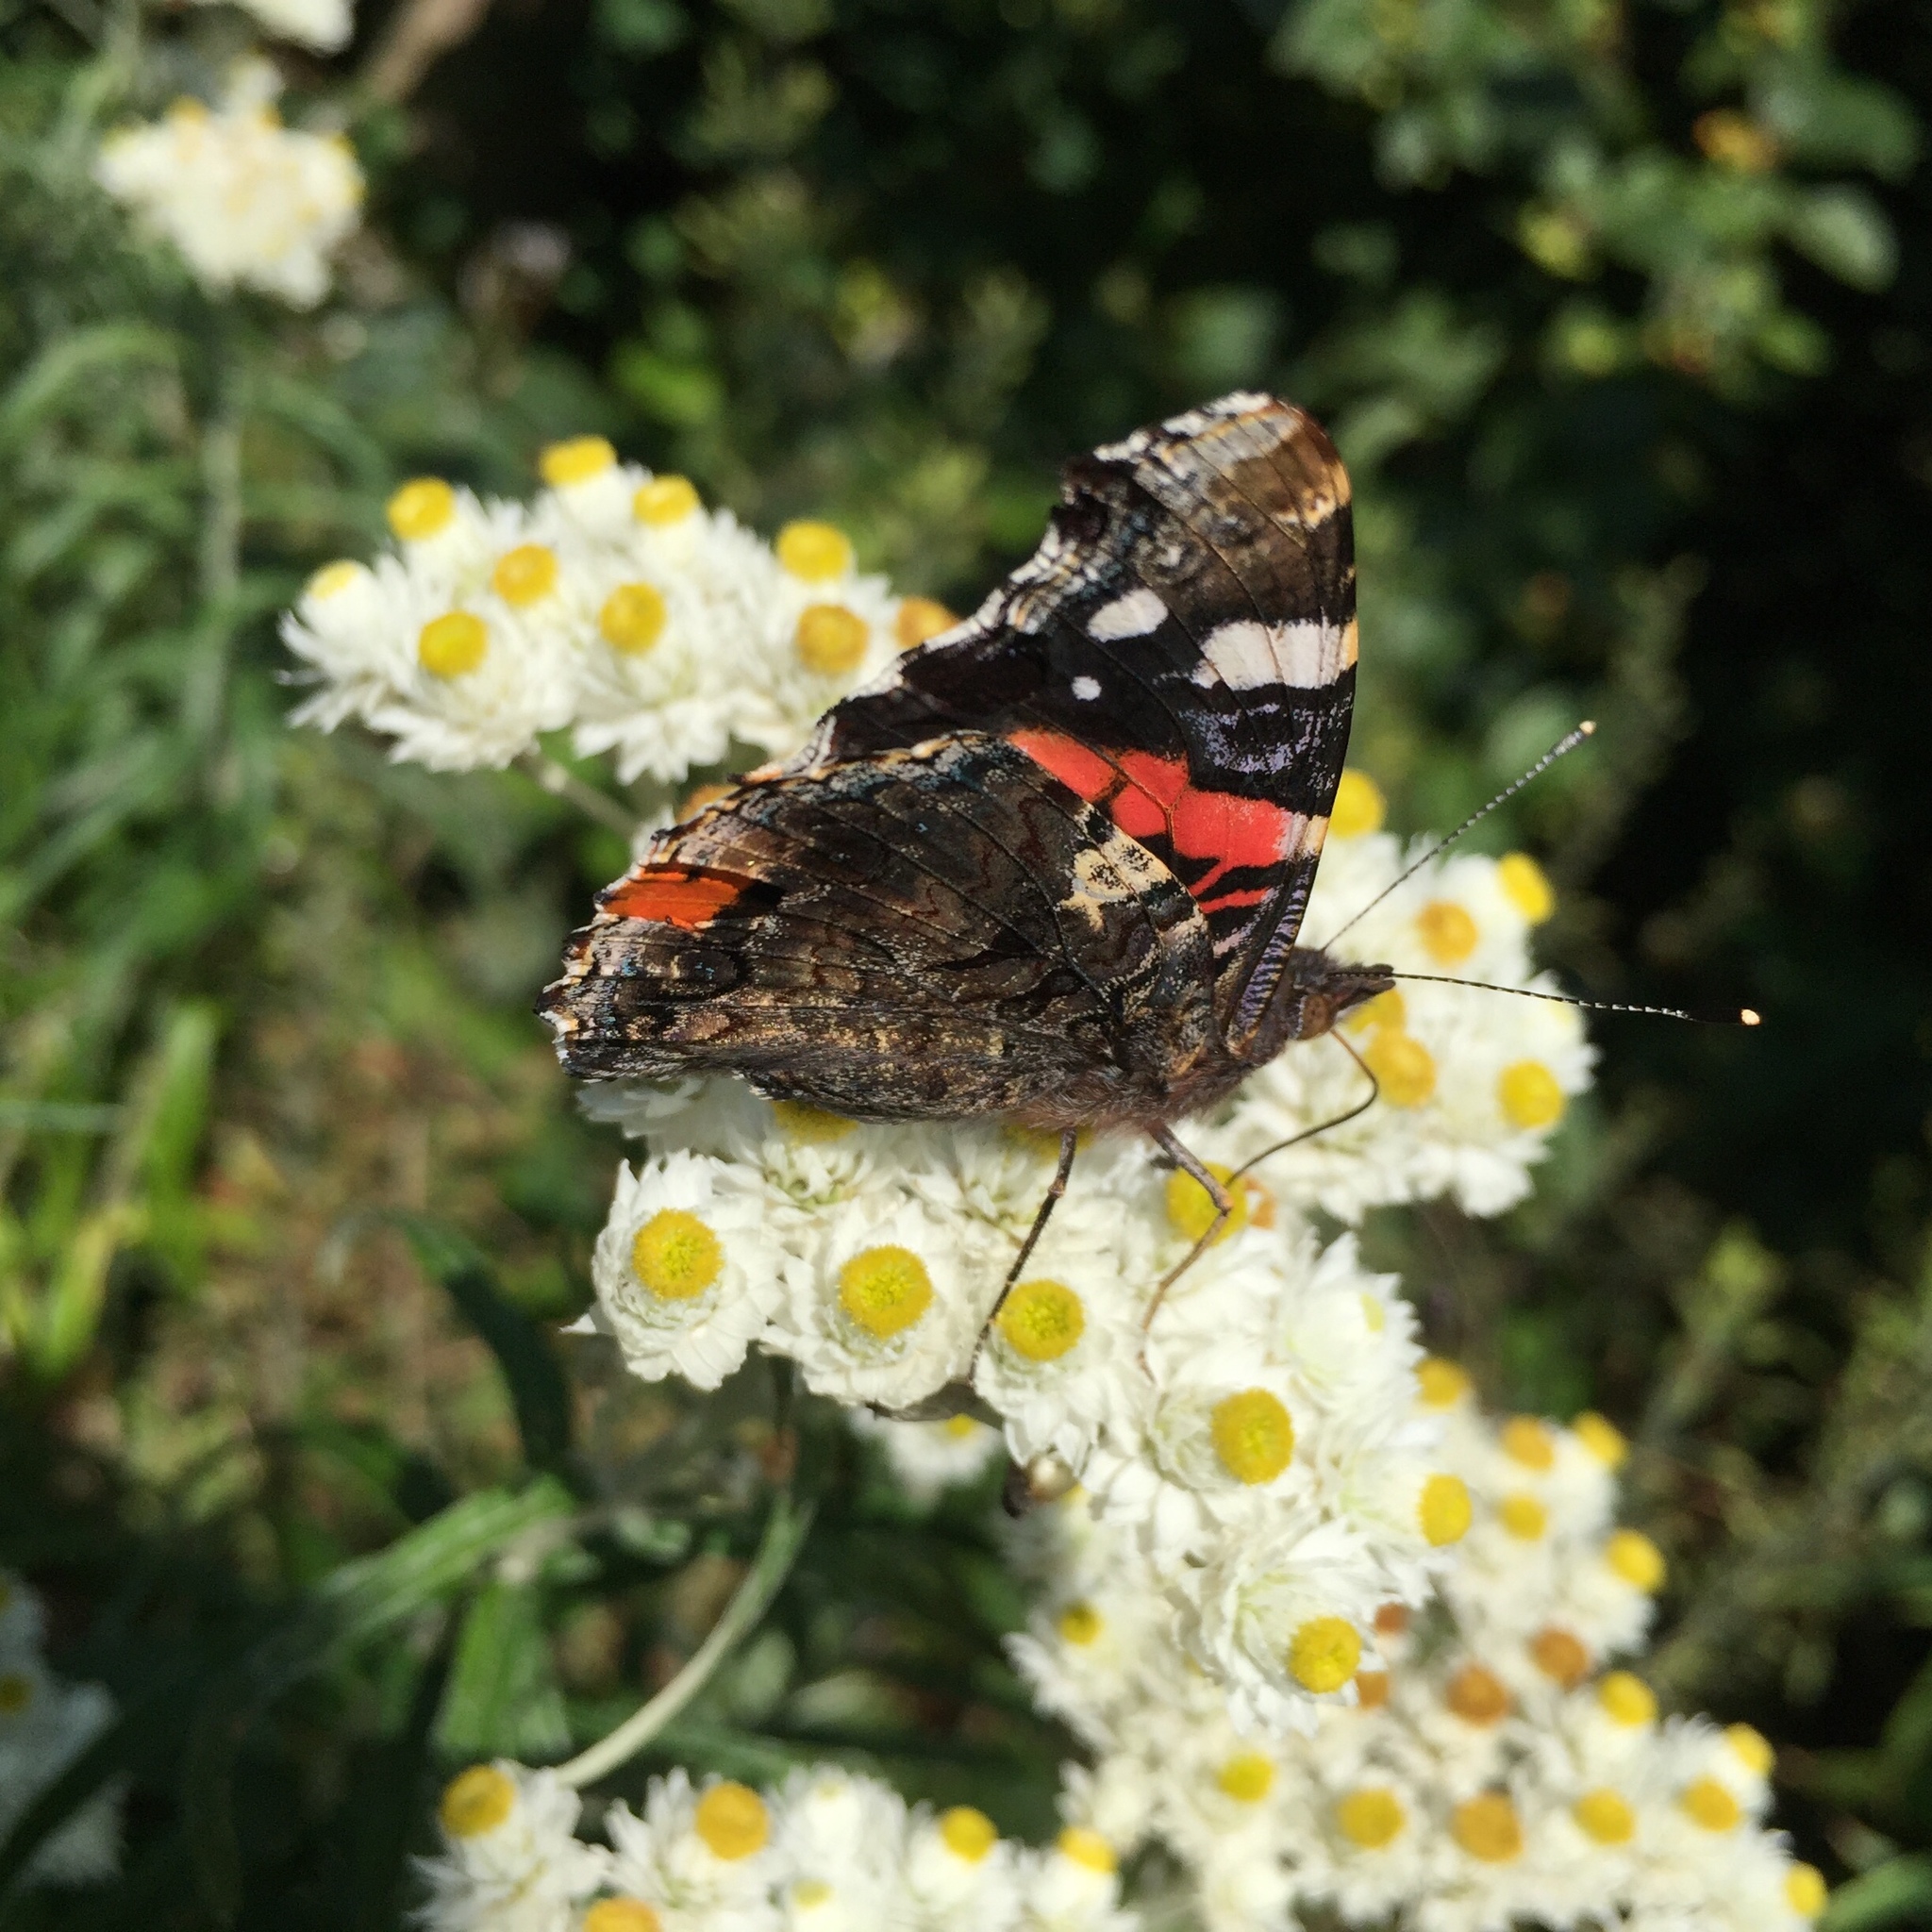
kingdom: Animalia
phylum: Arthropoda
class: Insecta
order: Lepidoptera
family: Nymphalidae
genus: Vanessa
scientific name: Vanessa atalanta
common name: Red admiral
